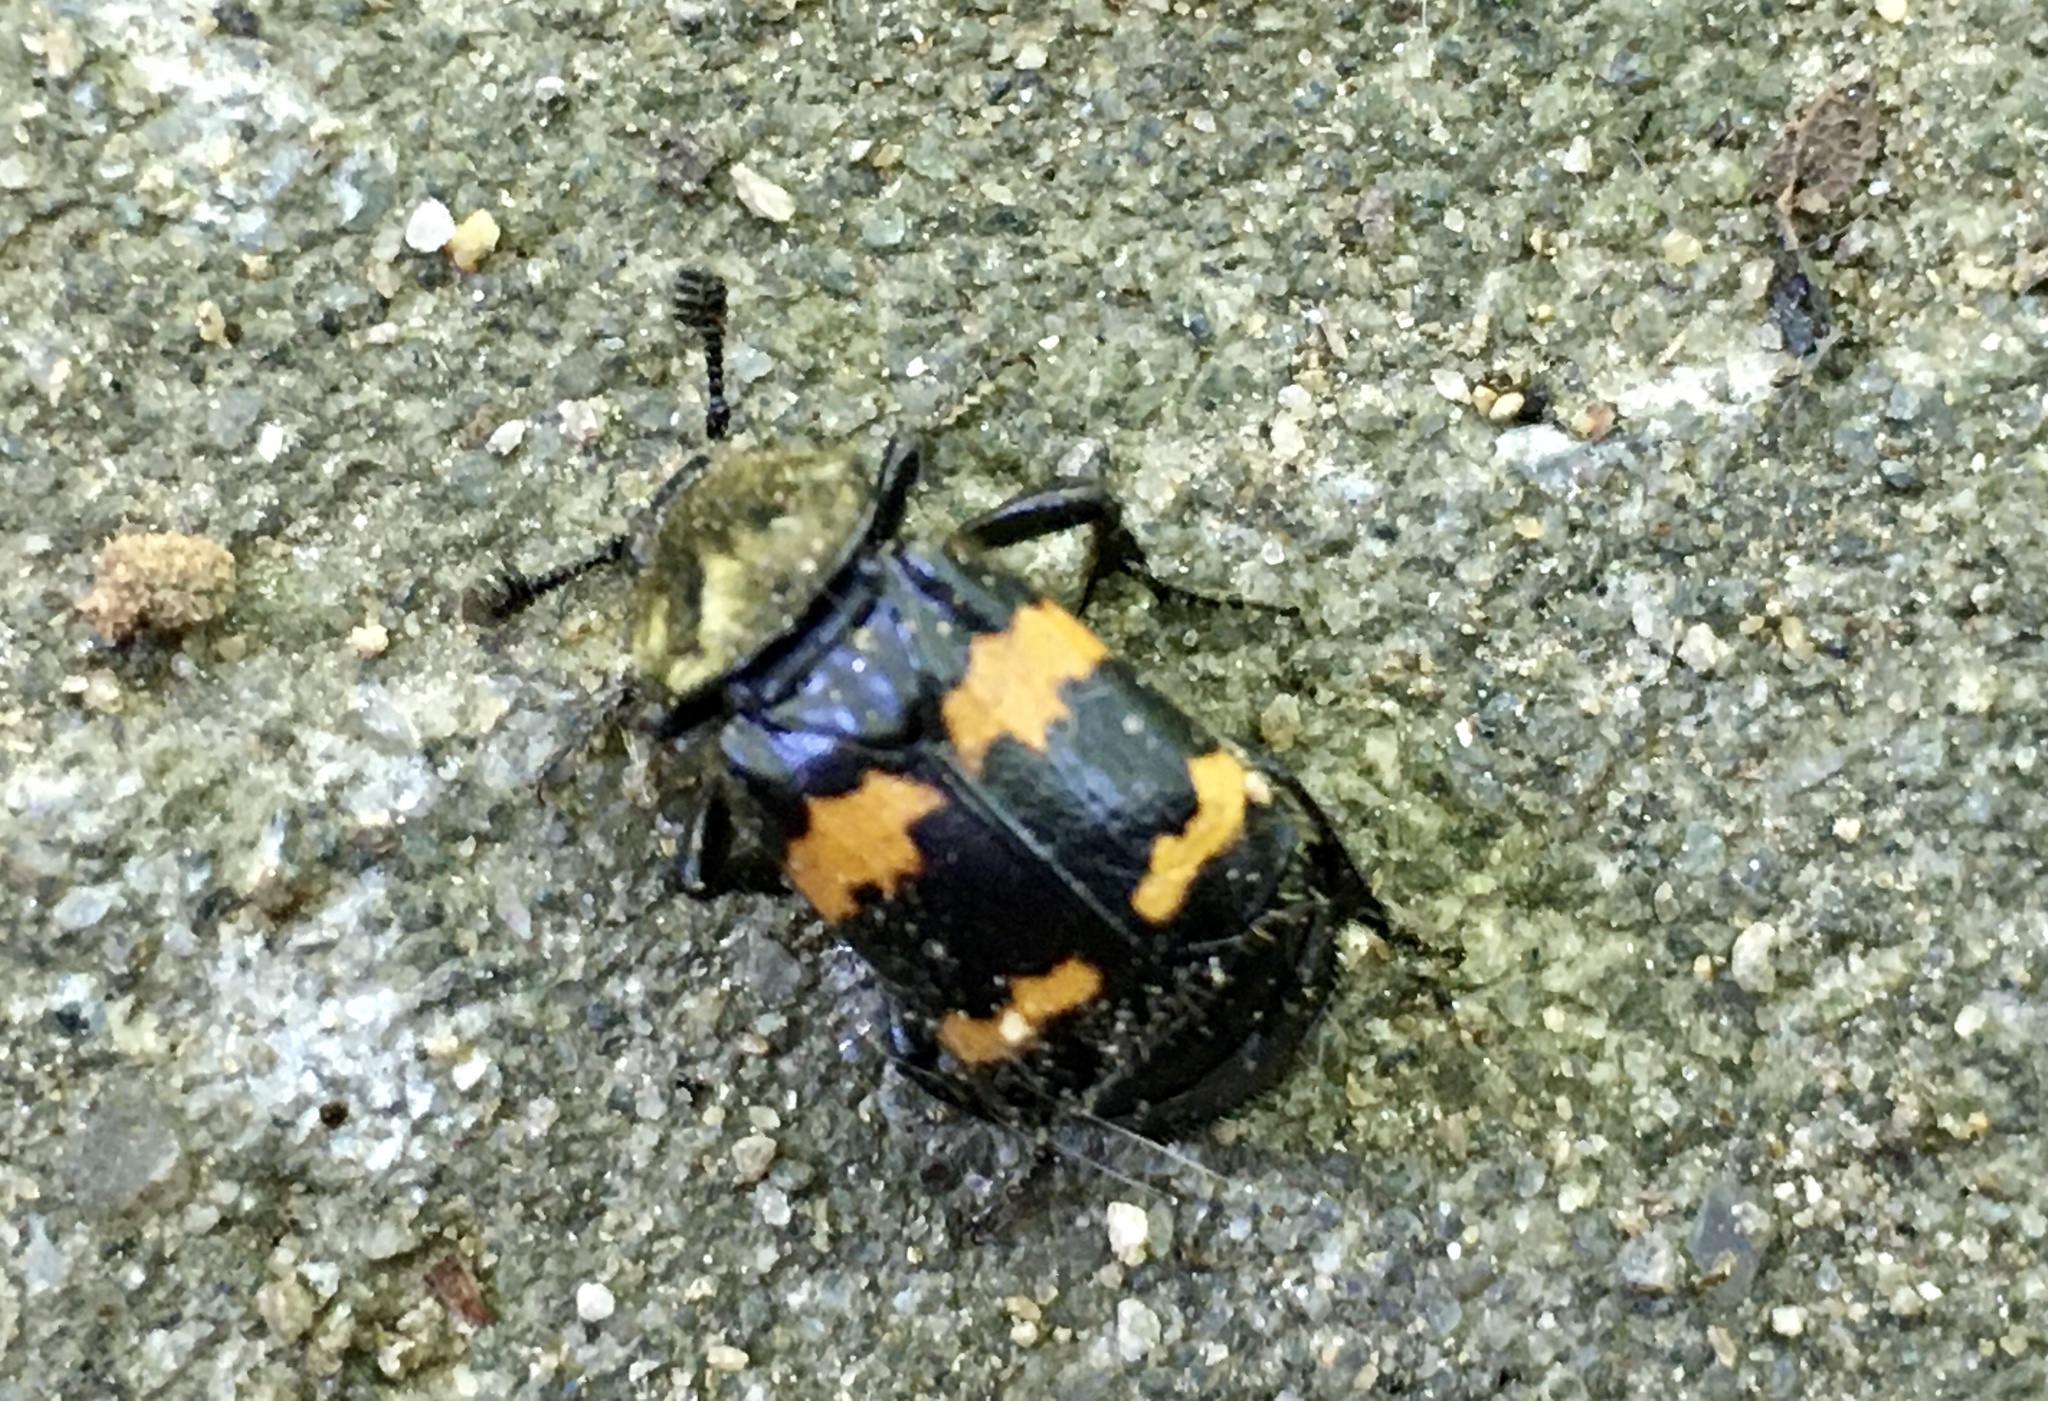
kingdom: Animalia
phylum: Arthropoda
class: Insecta
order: Coleoptera
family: Staphylinidae
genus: Nicrophorus
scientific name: Nicrophorus tomentosus
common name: Tomentose burying beetle
